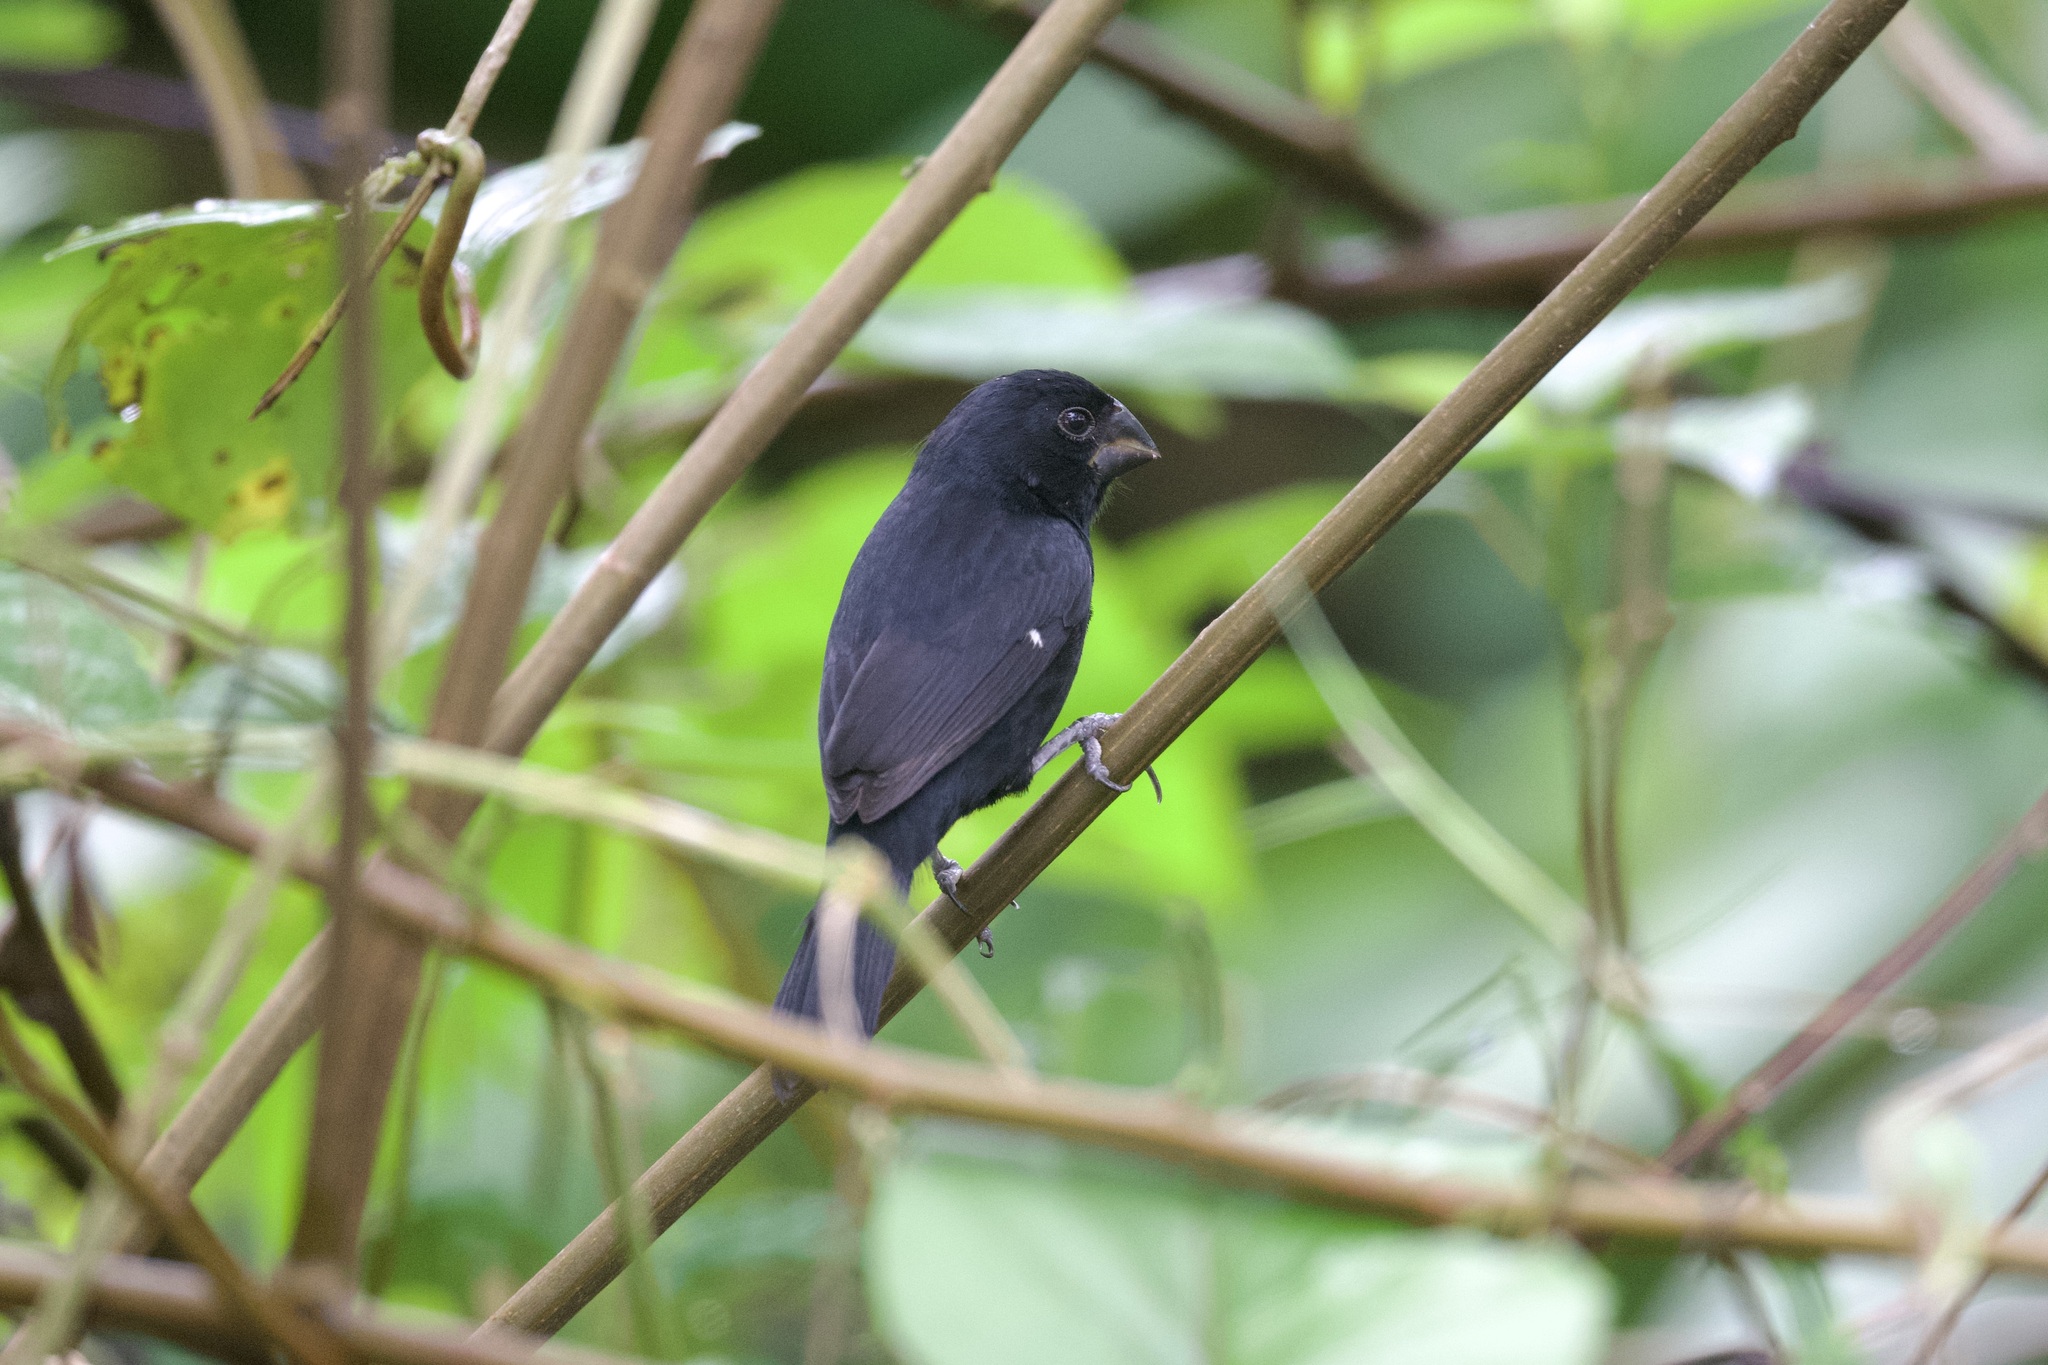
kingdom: Animalia
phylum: Chordata
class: Aves
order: Passeriformes
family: Thraupidae
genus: Sporophila
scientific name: Sporophila funerea
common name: Thick-billed seed-finch
